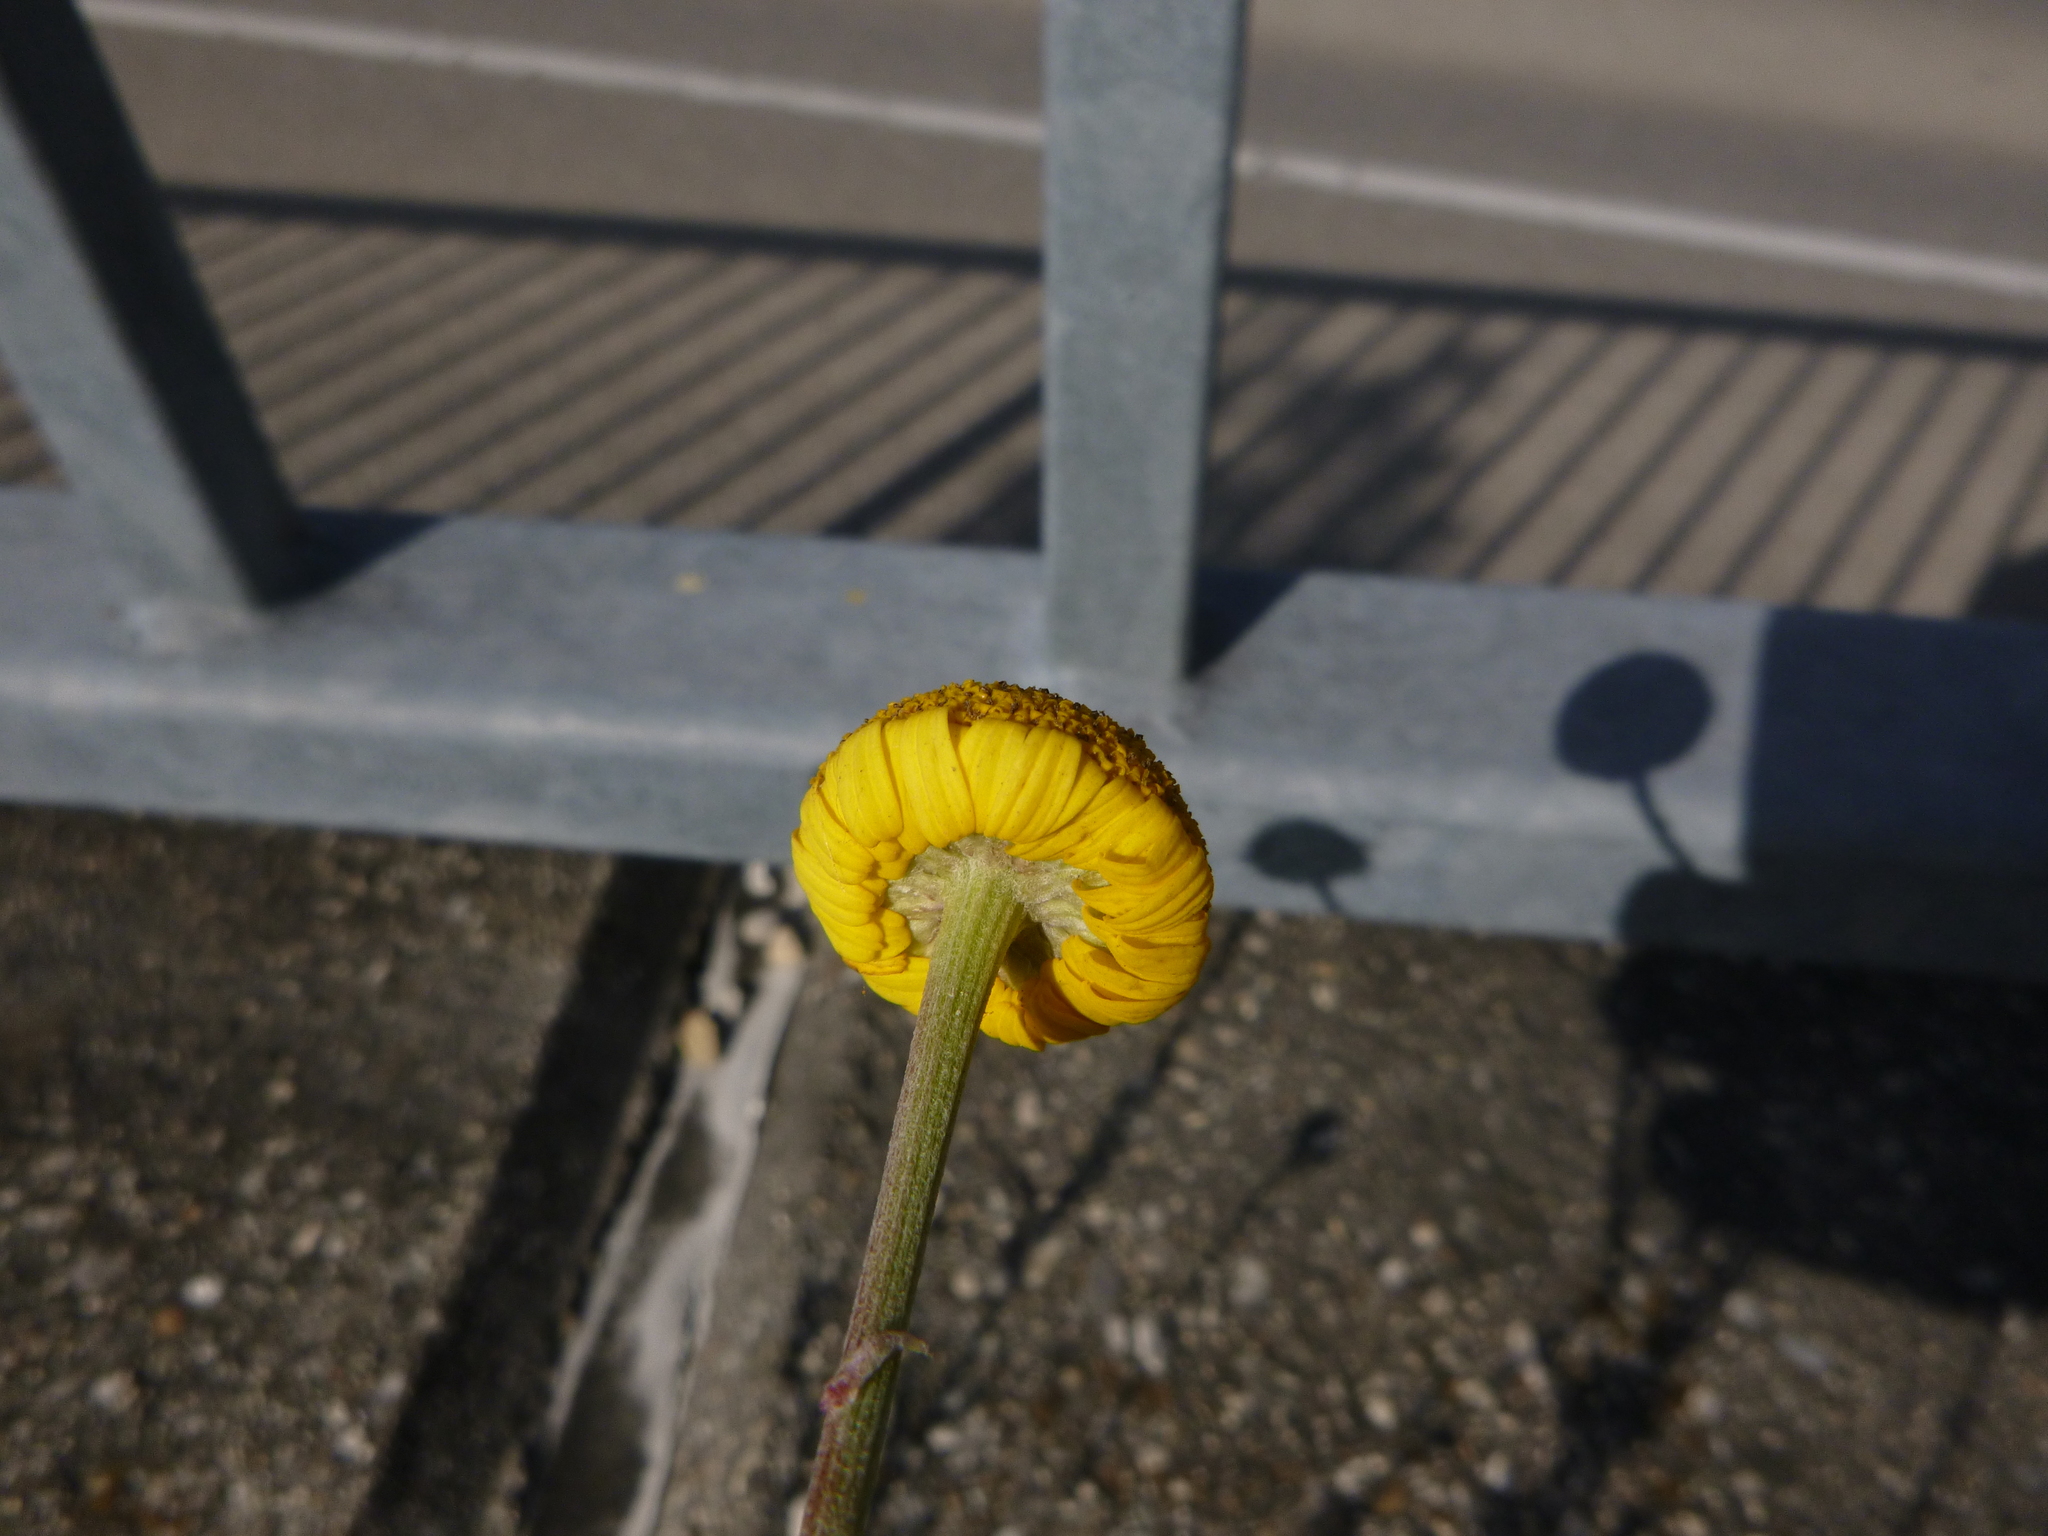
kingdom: Plantae
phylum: Tracheophyta
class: Magnoliopsida
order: Asterales
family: Asteraceae
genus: Cota
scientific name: Cota tinctoria
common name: Golden chamomile
